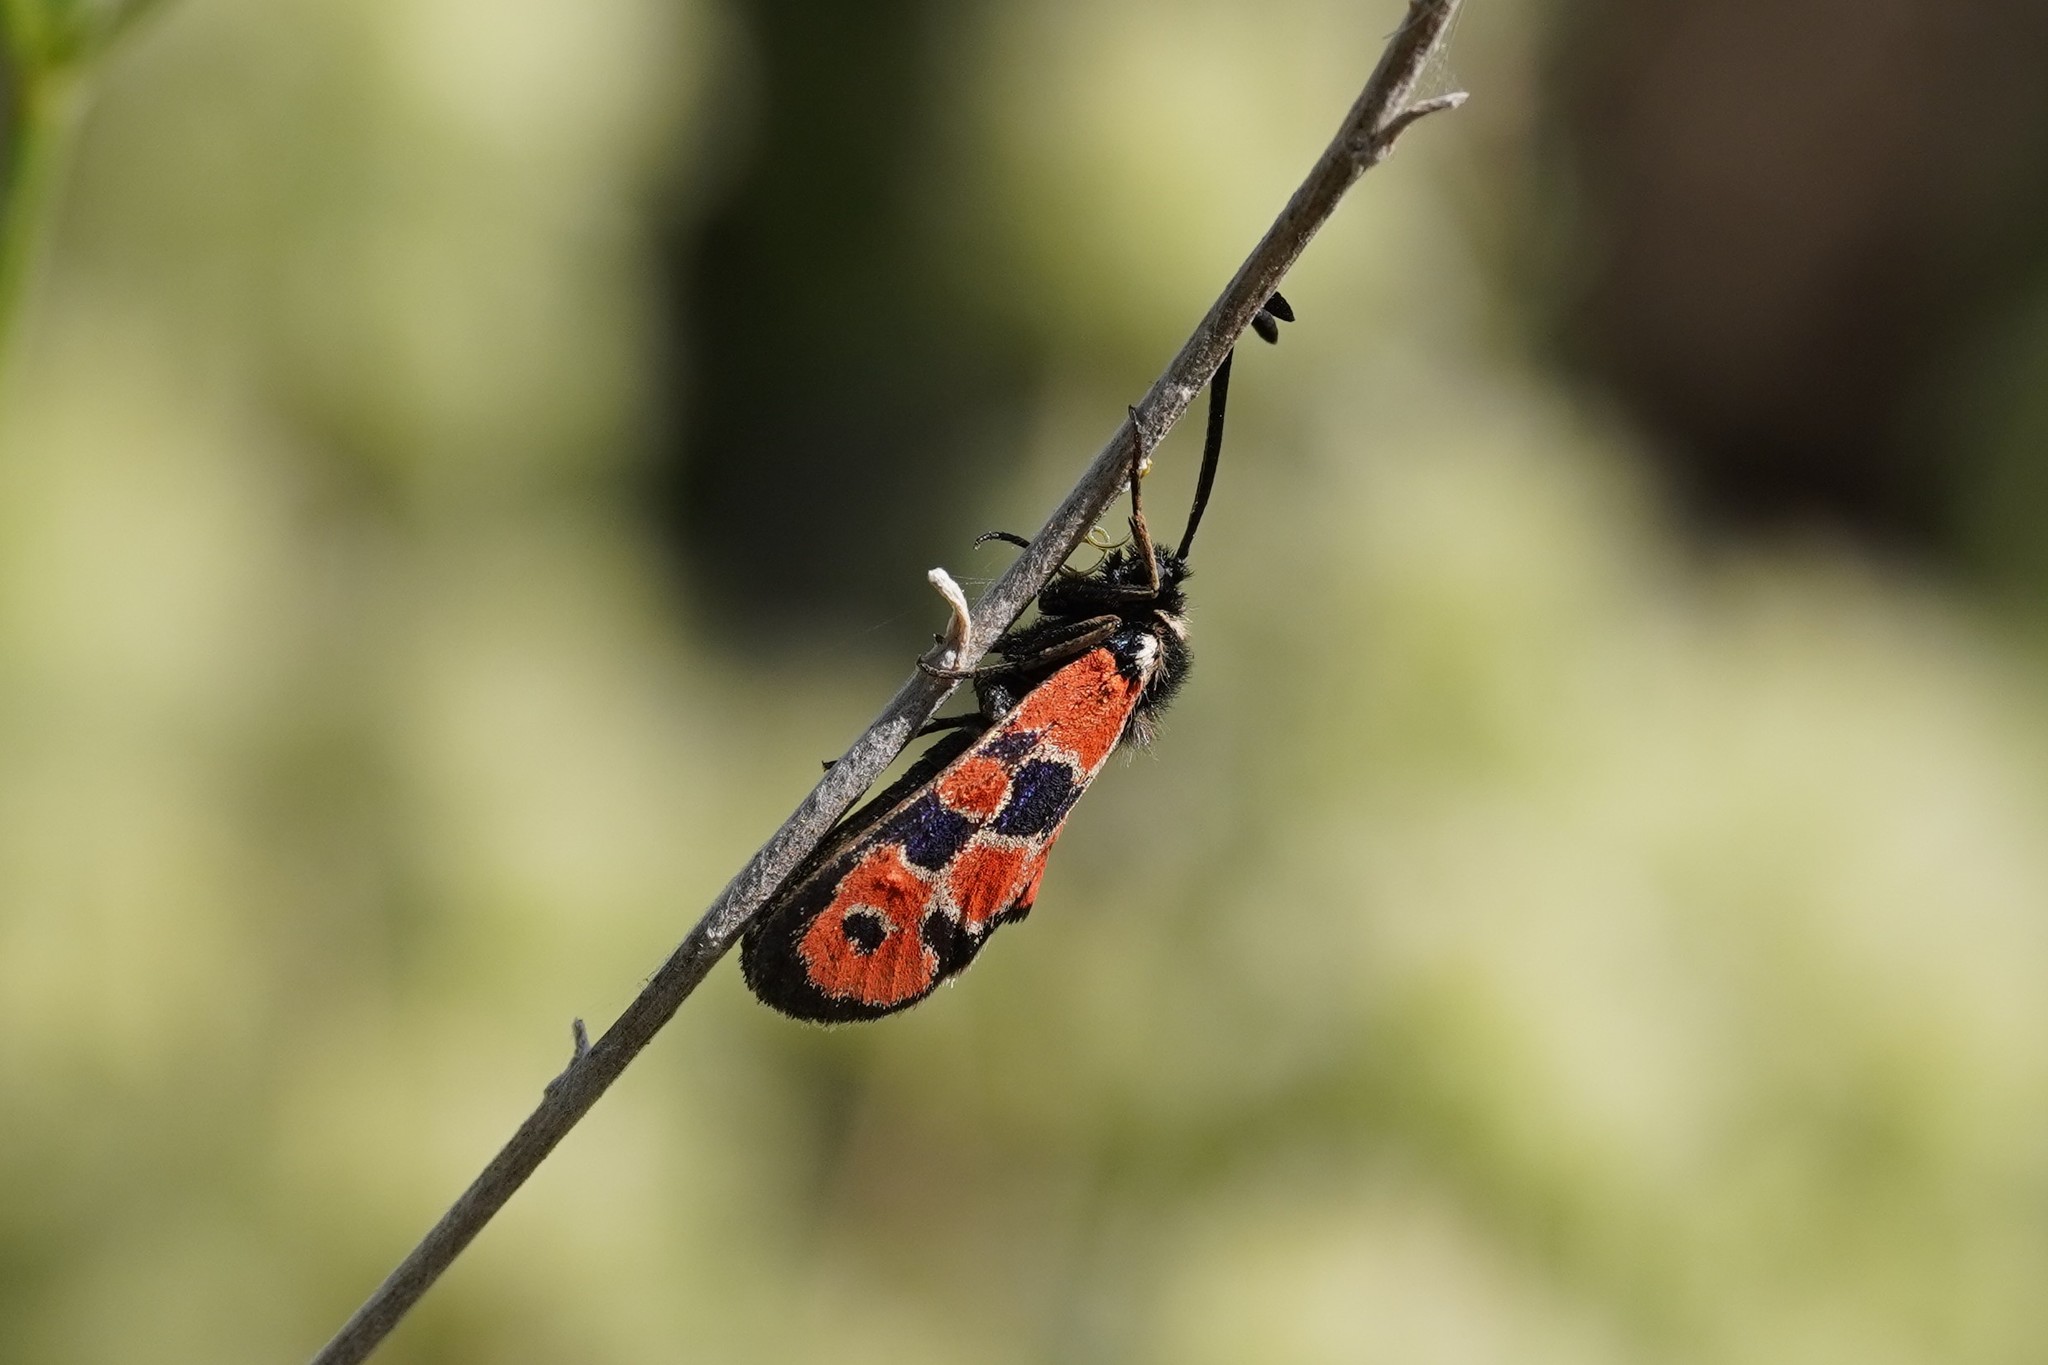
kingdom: Animalia
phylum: Arthropoda
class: Insecta
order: Lepidoptera
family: Zygaenidae
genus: Zygaena
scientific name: Zygaena hilaris
